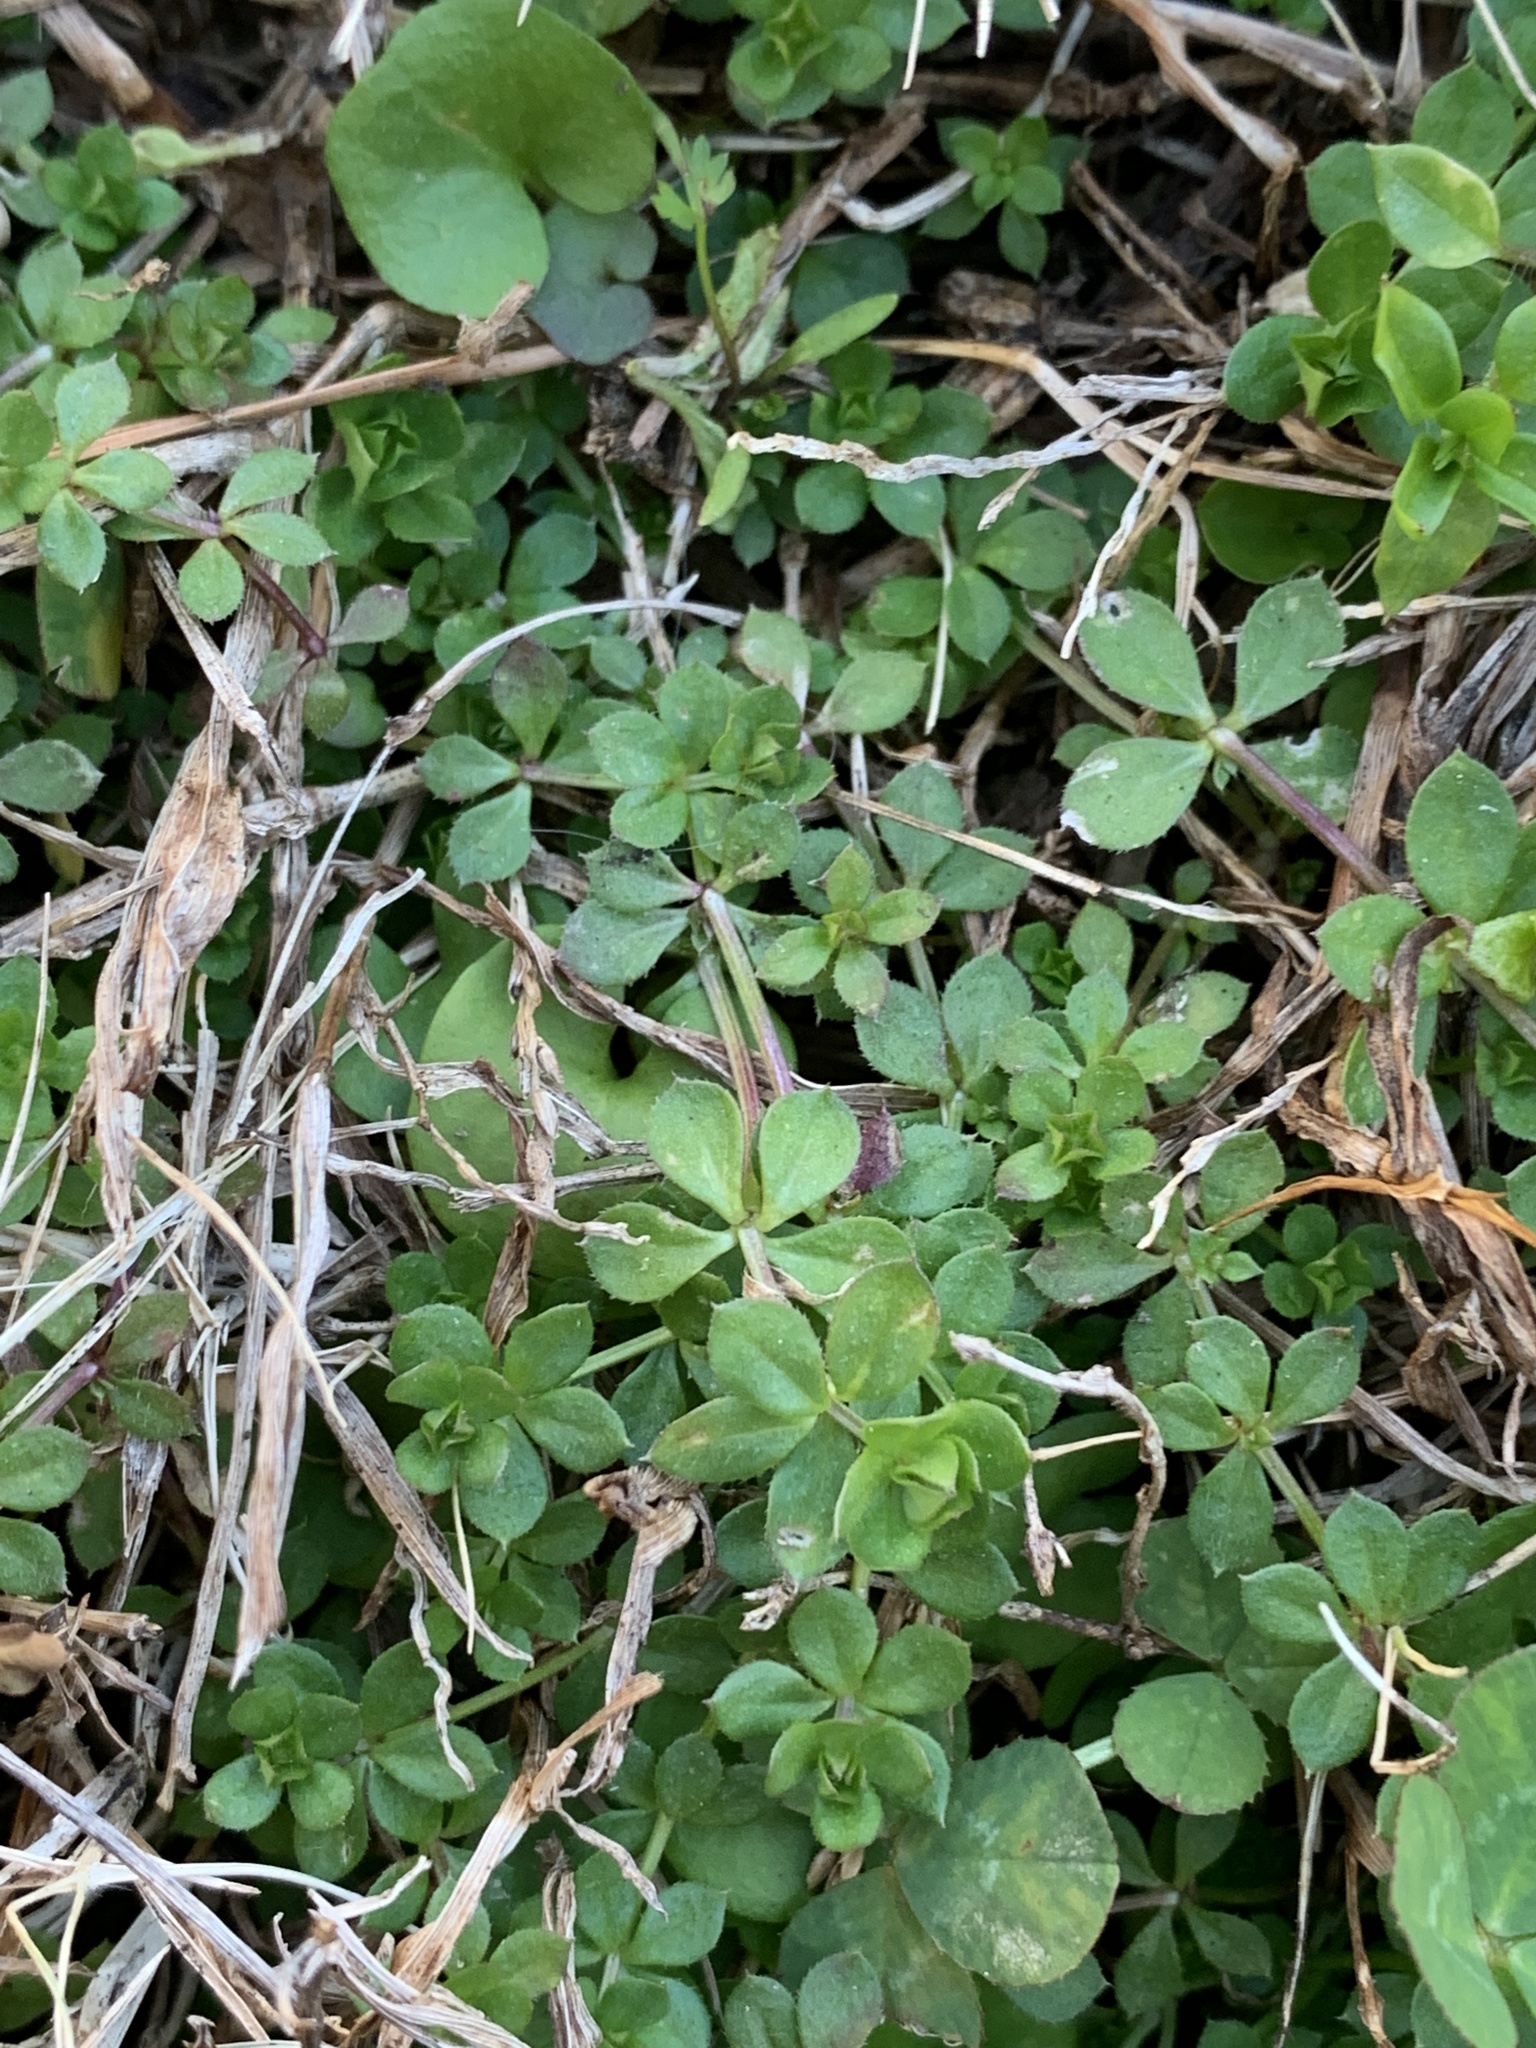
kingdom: Plantae
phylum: Tracheophyta
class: Magnoliopsida
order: Gentianales
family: Rubiaceae
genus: Sherardia
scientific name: Sherardia arvensis
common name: Field madder
